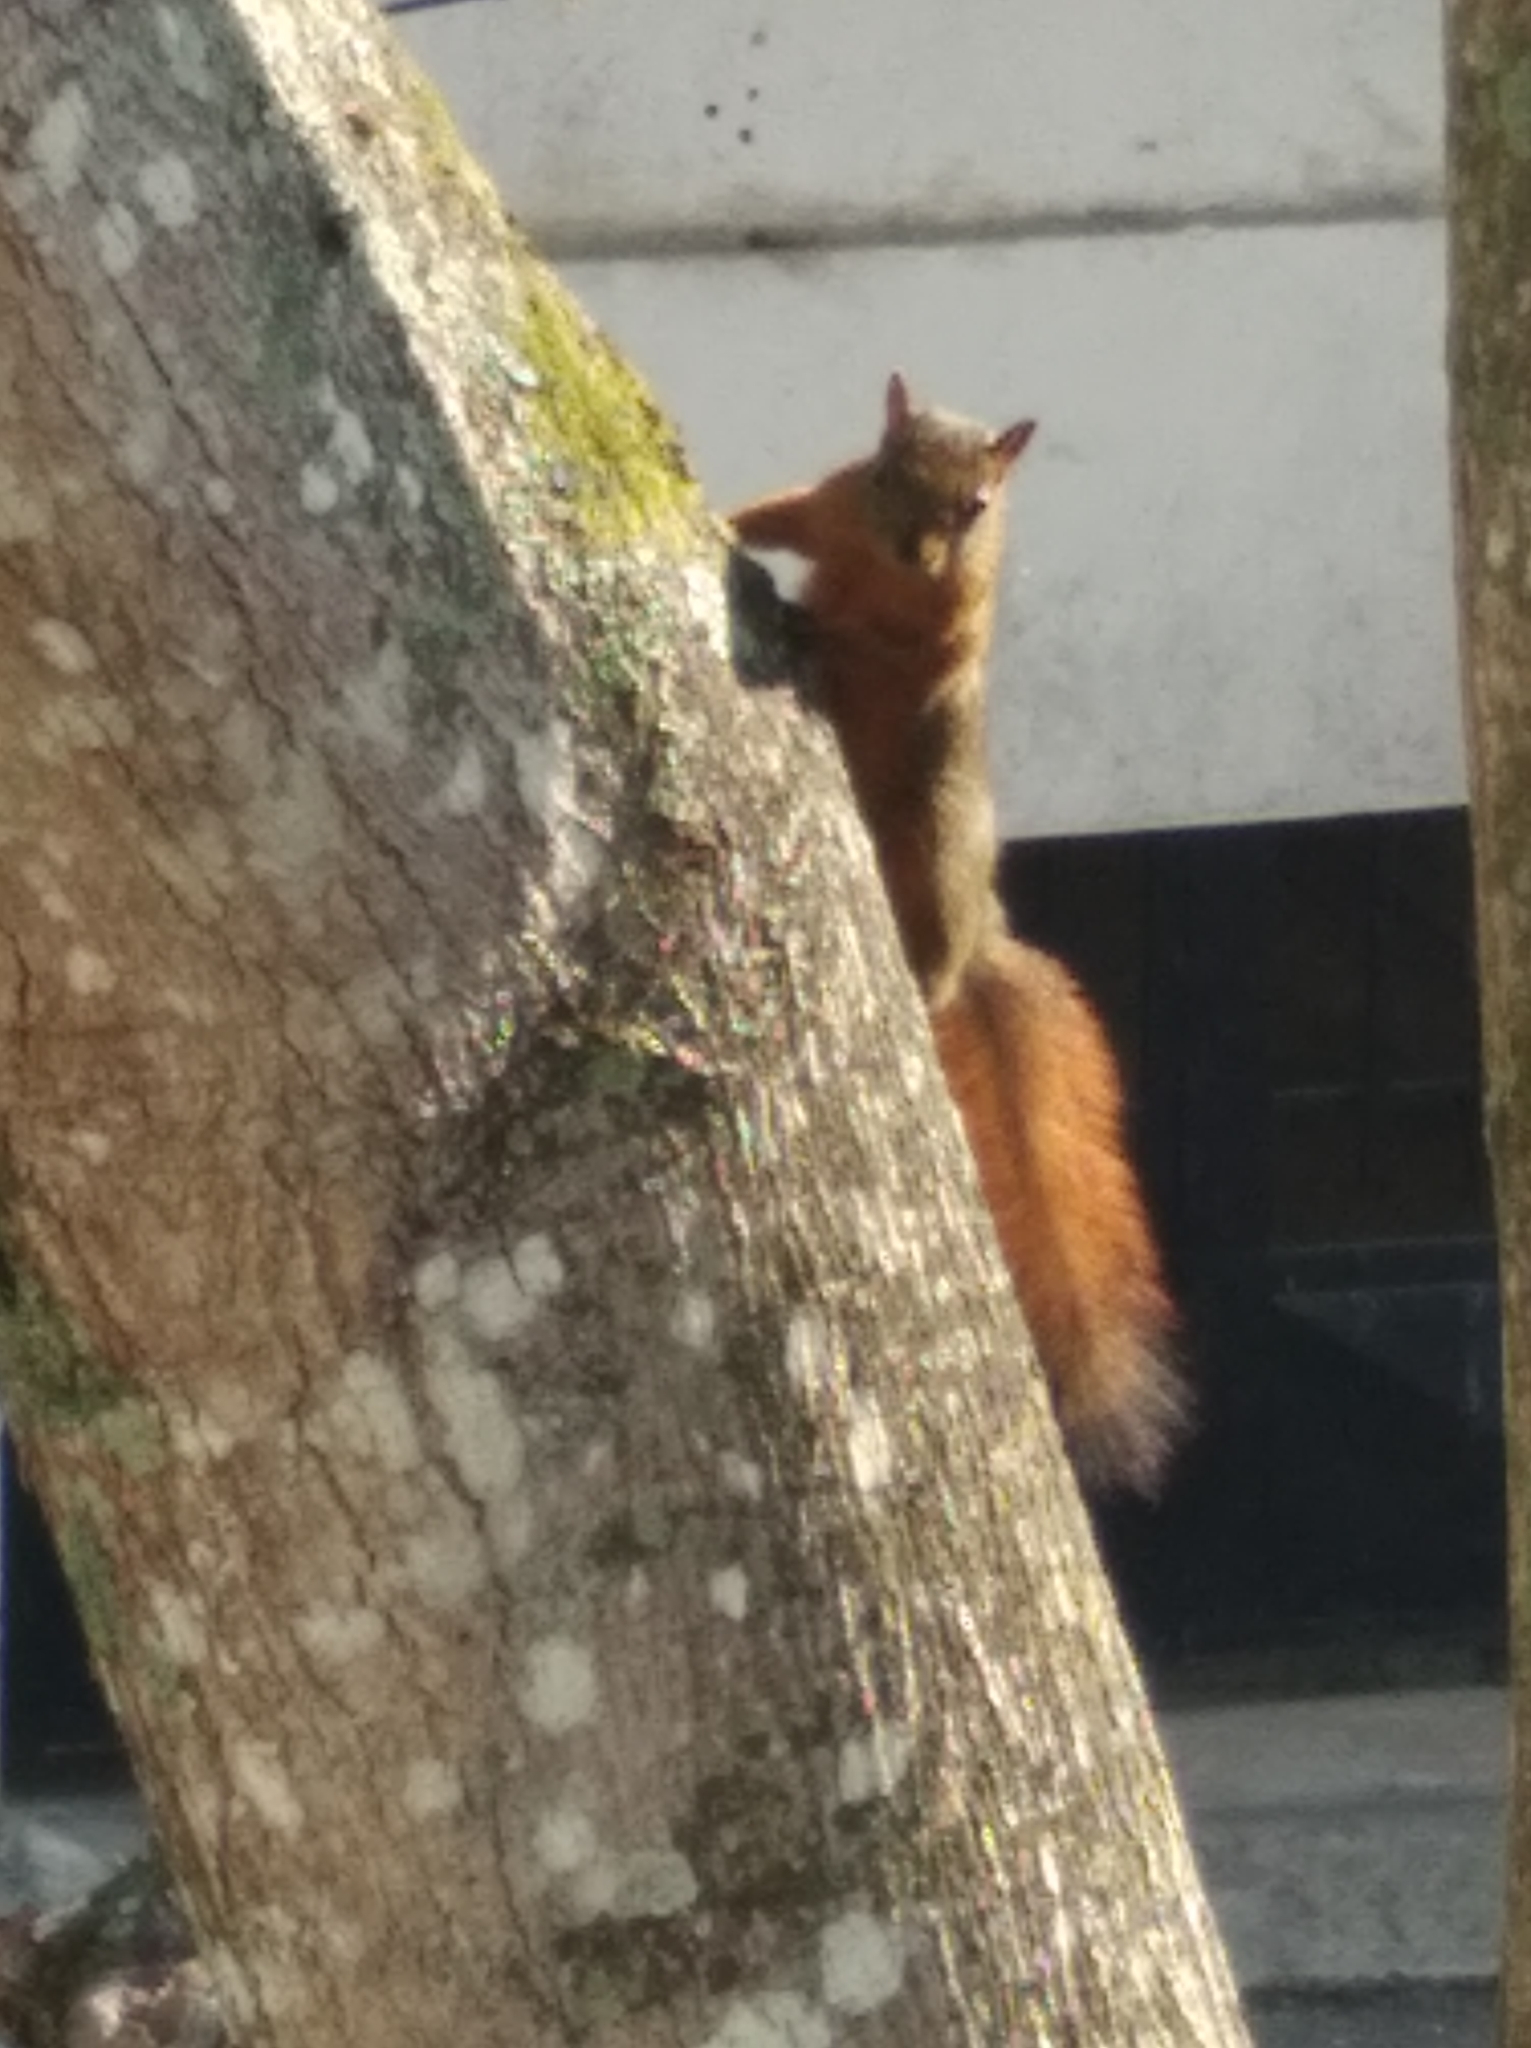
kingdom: Animalia
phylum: Chordata
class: Mammalia
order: Rodentia
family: Sciuridae
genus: Sciurus
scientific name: Sciurus granatensis
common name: Red-tailed squirrel
